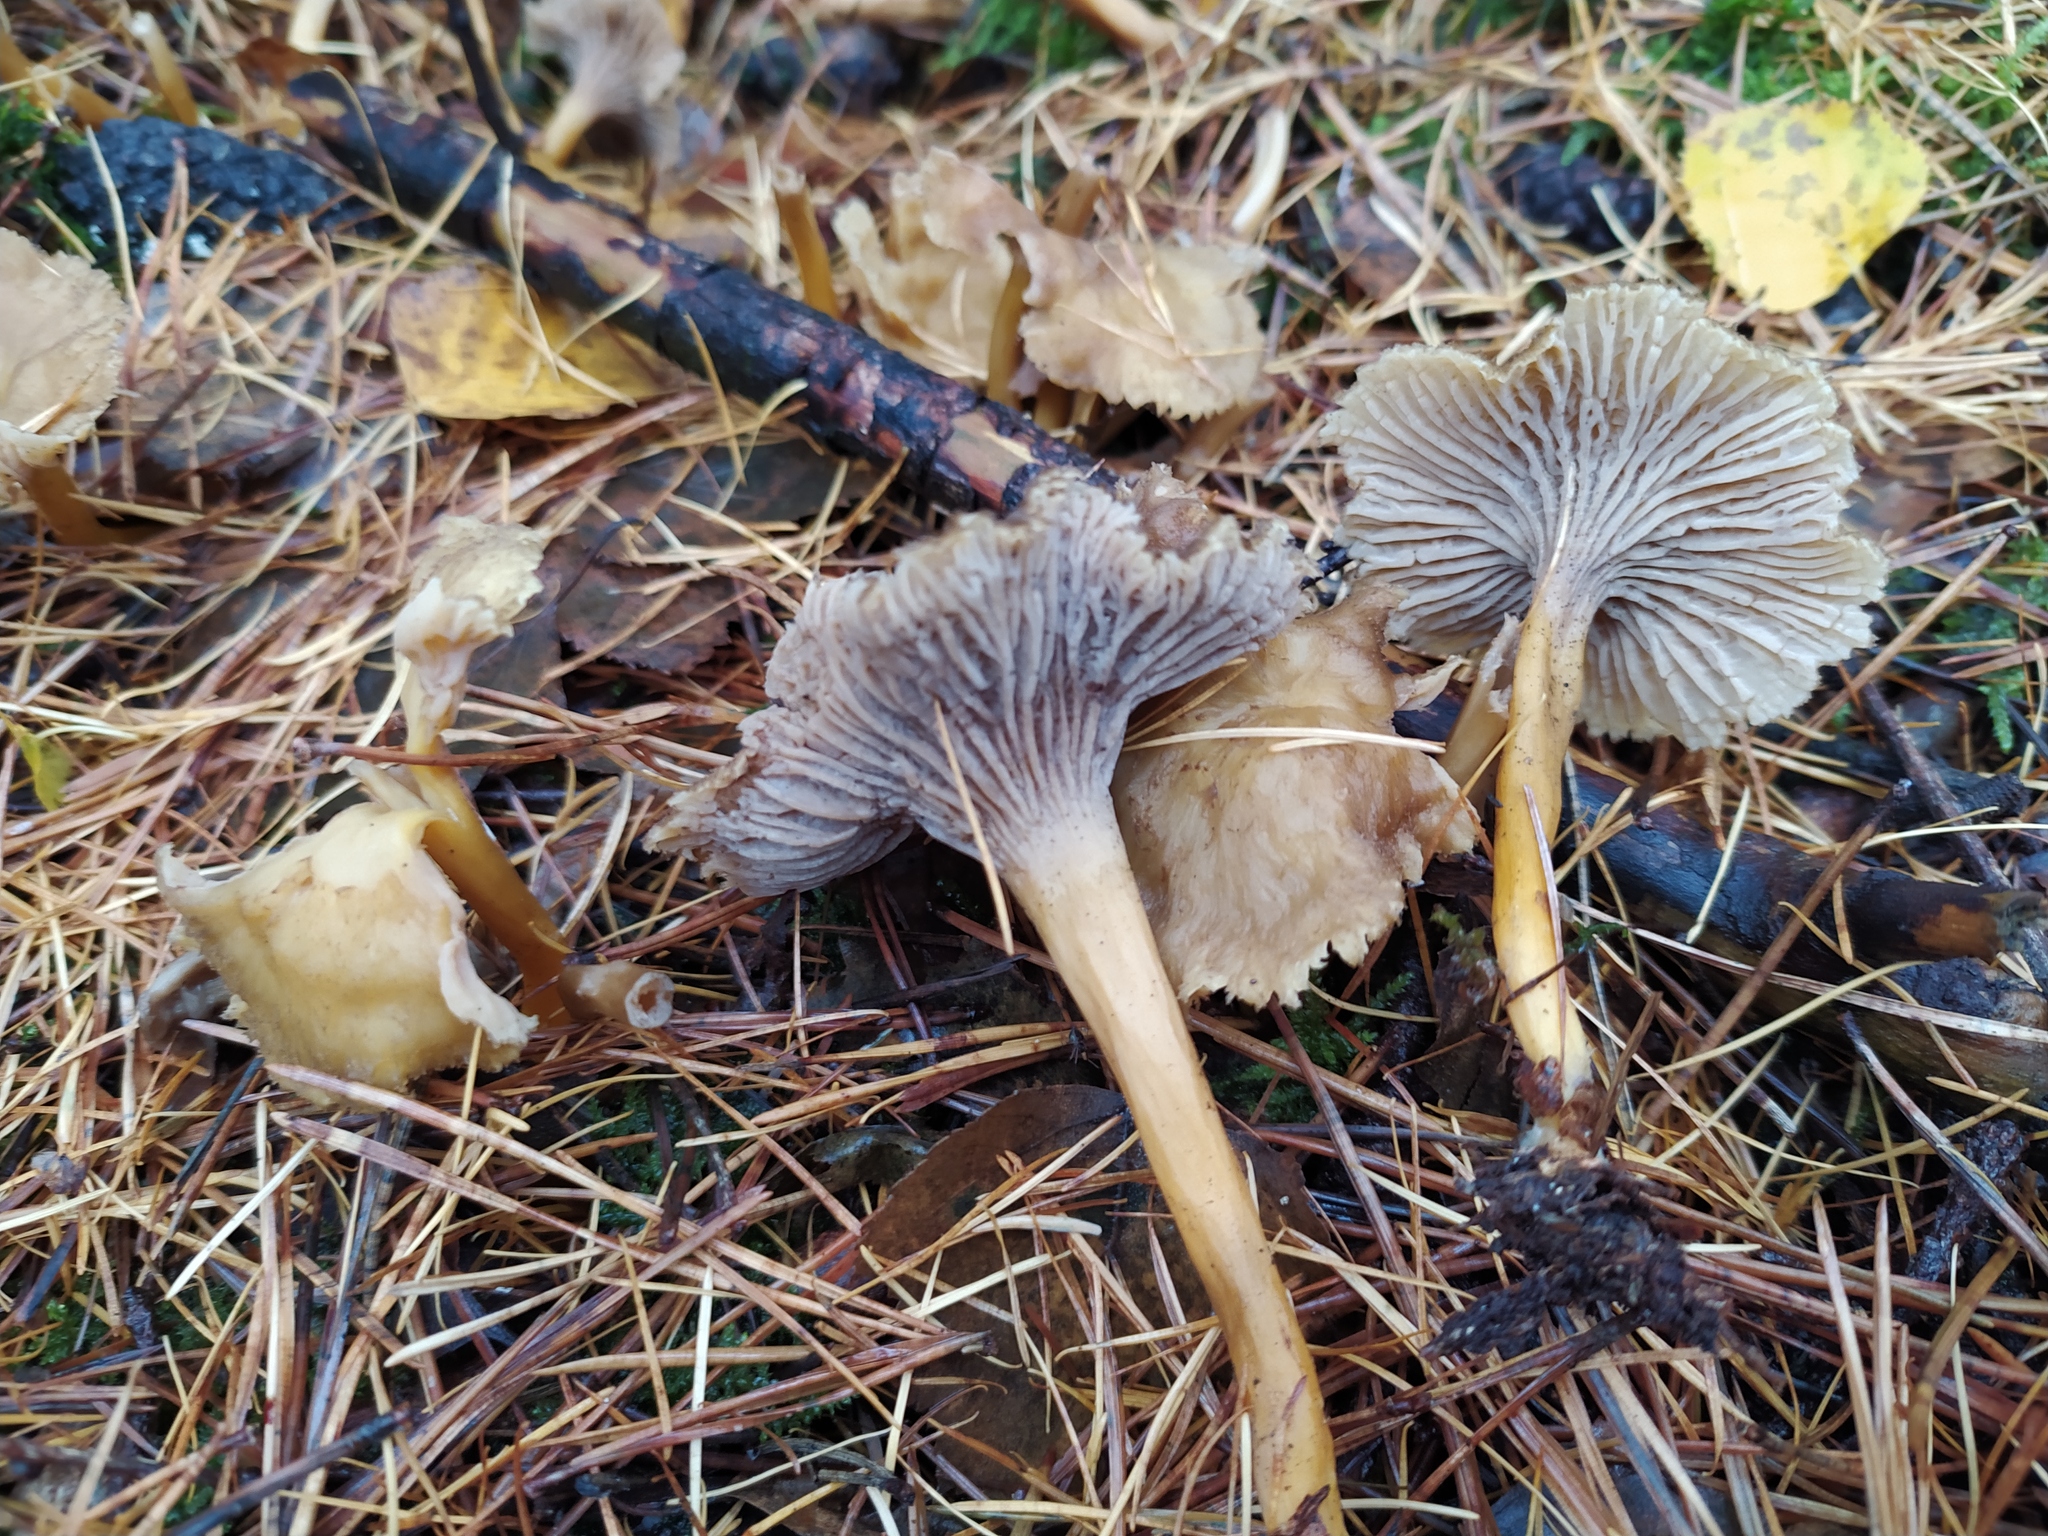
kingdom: Fungi
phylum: Basidiomycota
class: Agaricomycetes
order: Cantharellales
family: Hydnaceae
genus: Craterellus
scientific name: Craterellus tubaeformis
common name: Yellowfoot
